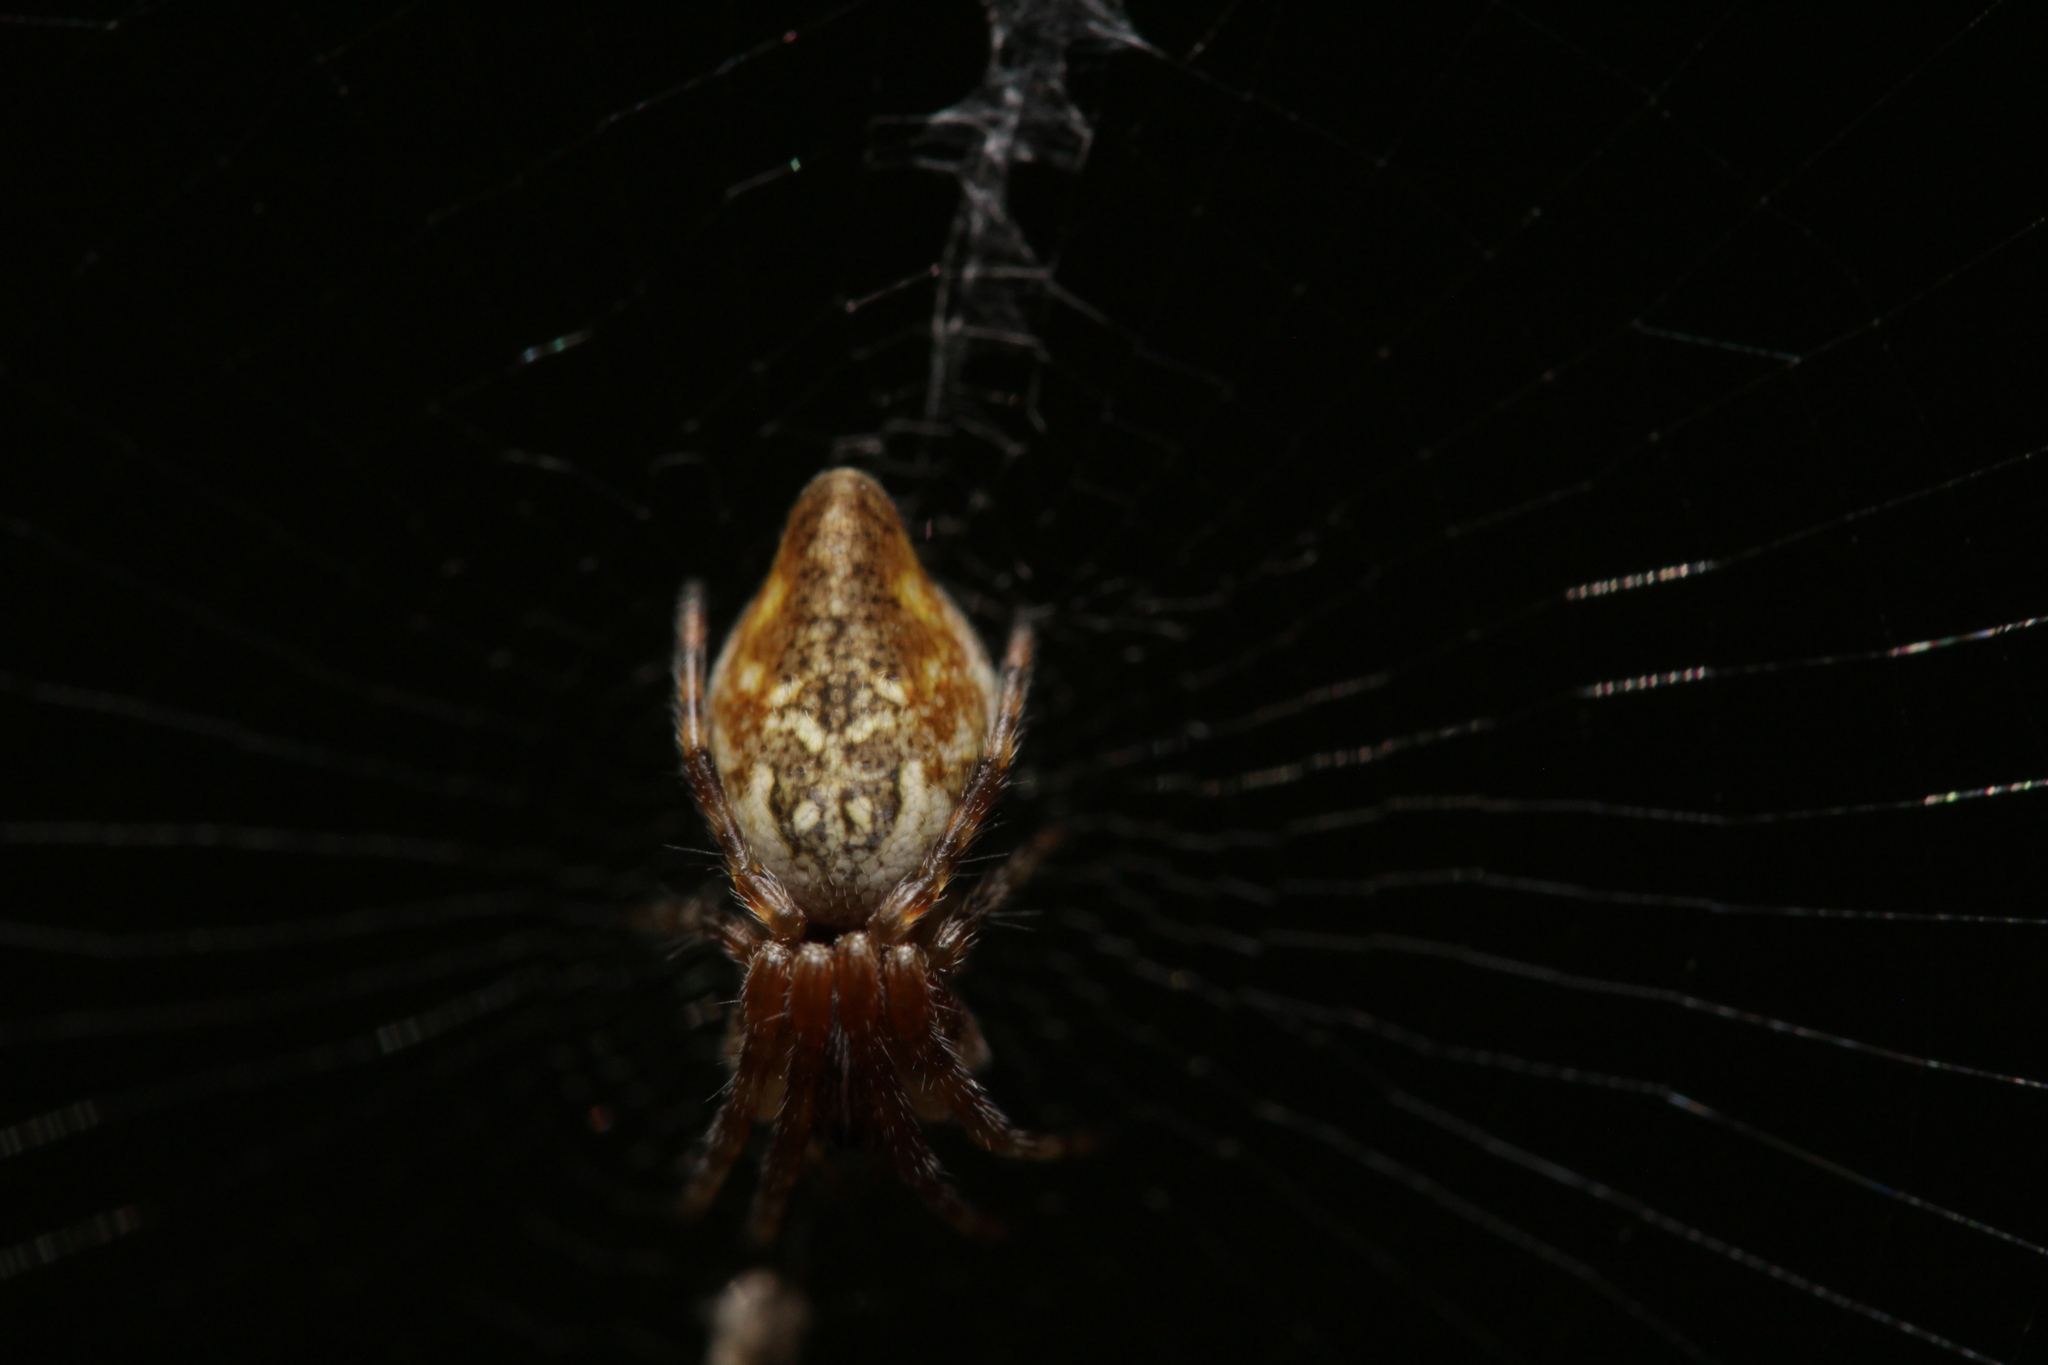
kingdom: Animalia
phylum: Arthropoda
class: Arachnida
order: Araneae
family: Araneidae
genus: Cyclosa
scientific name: Cyclosa conica
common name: Conical trashline orbweaver
